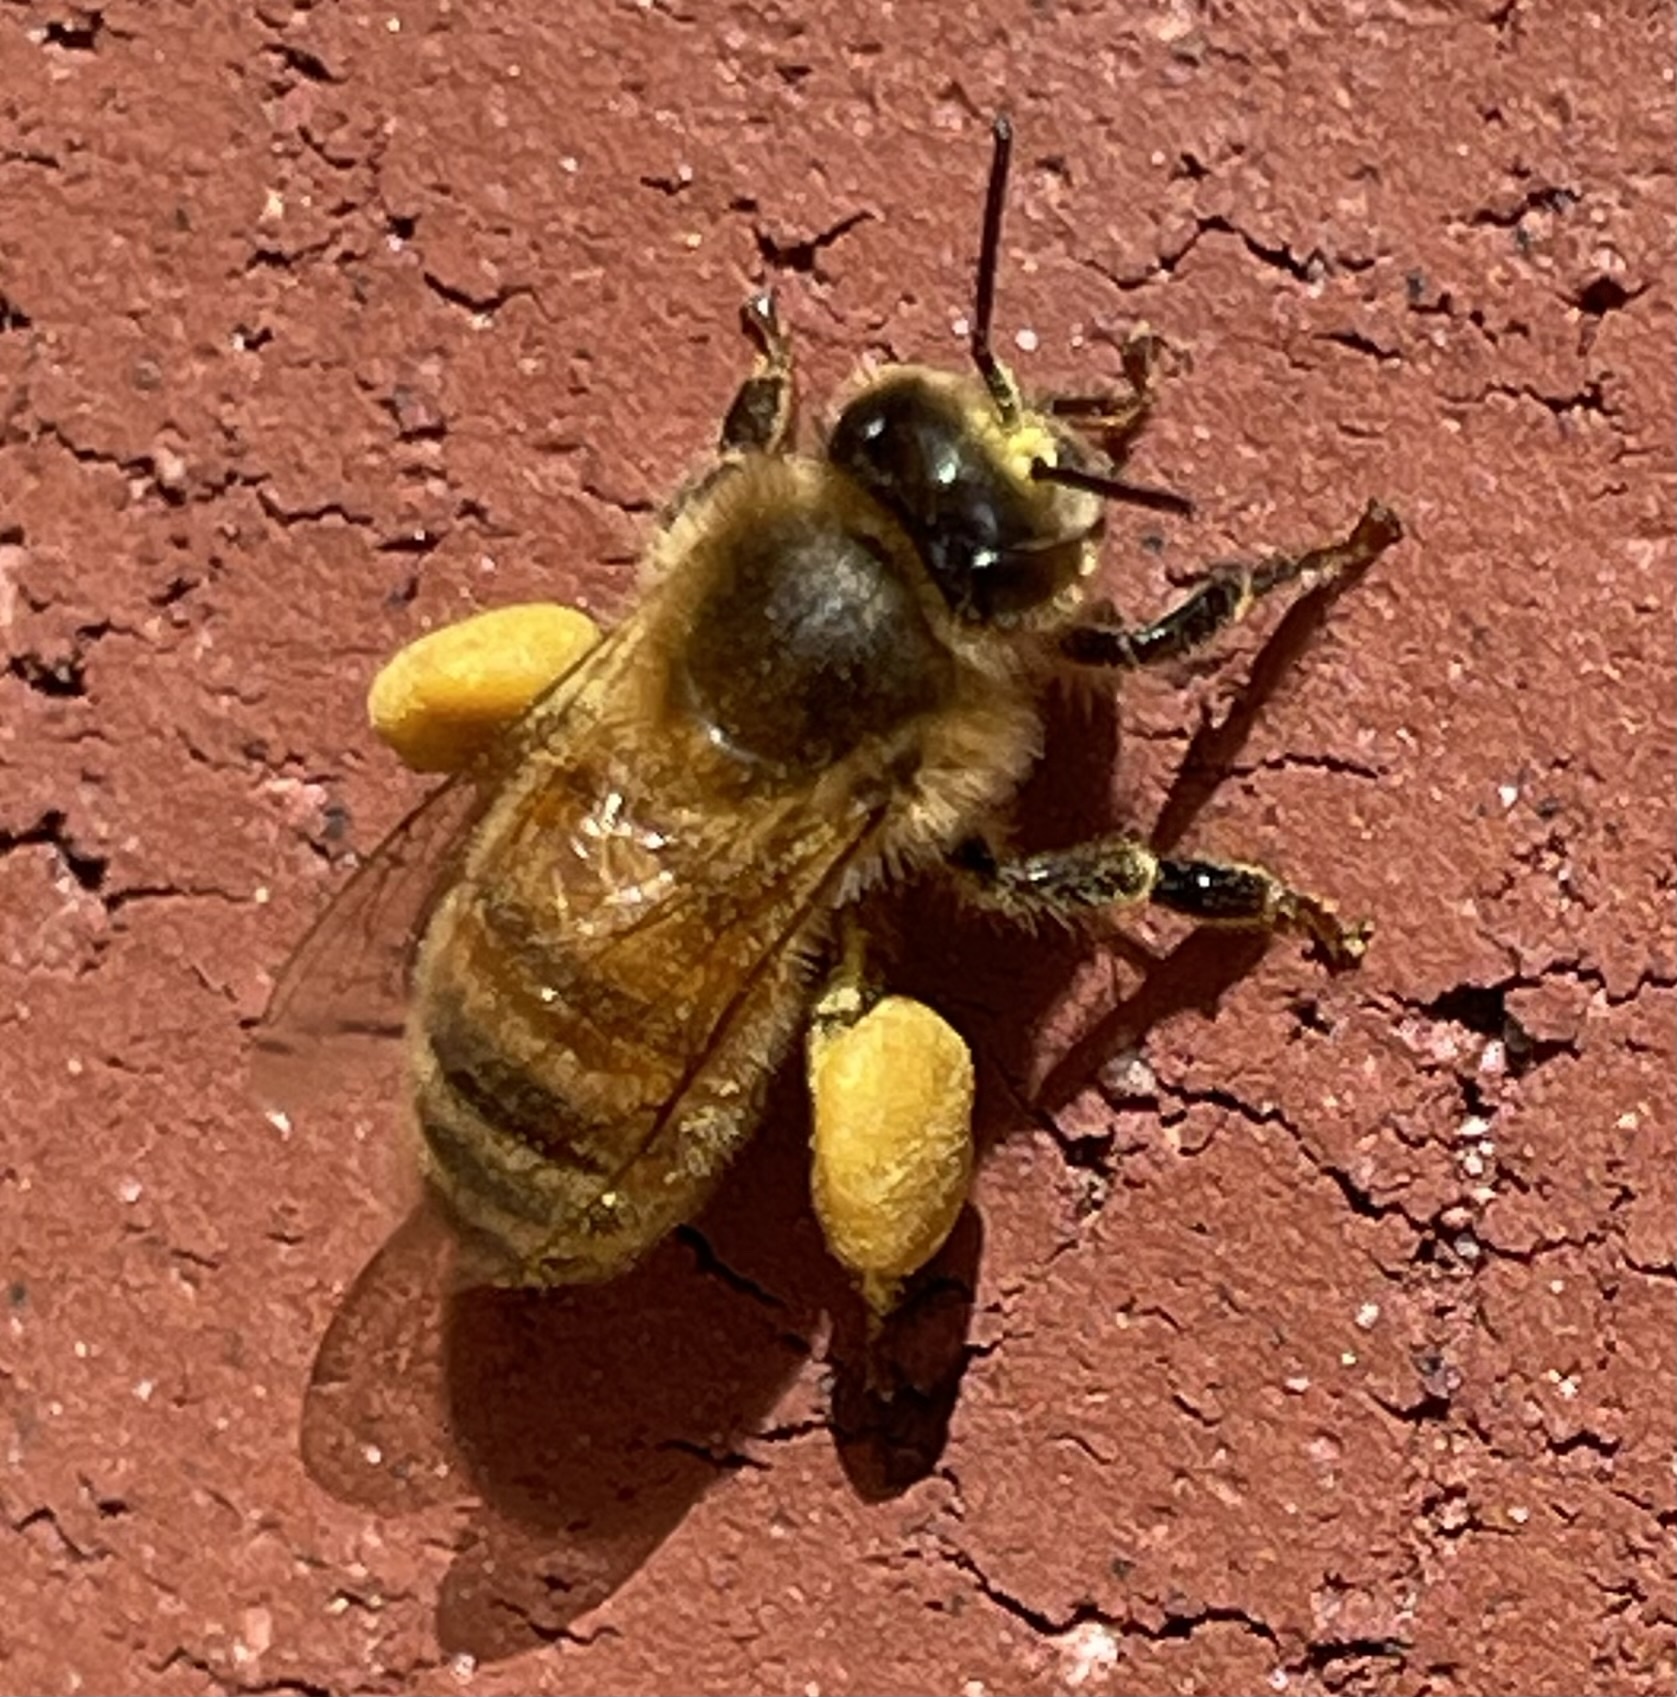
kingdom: Animalia
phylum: Arthropoda
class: Insecta
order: Hymenoptera
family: Apidae
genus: Apis
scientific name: Apis mellifera
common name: Honey bee
